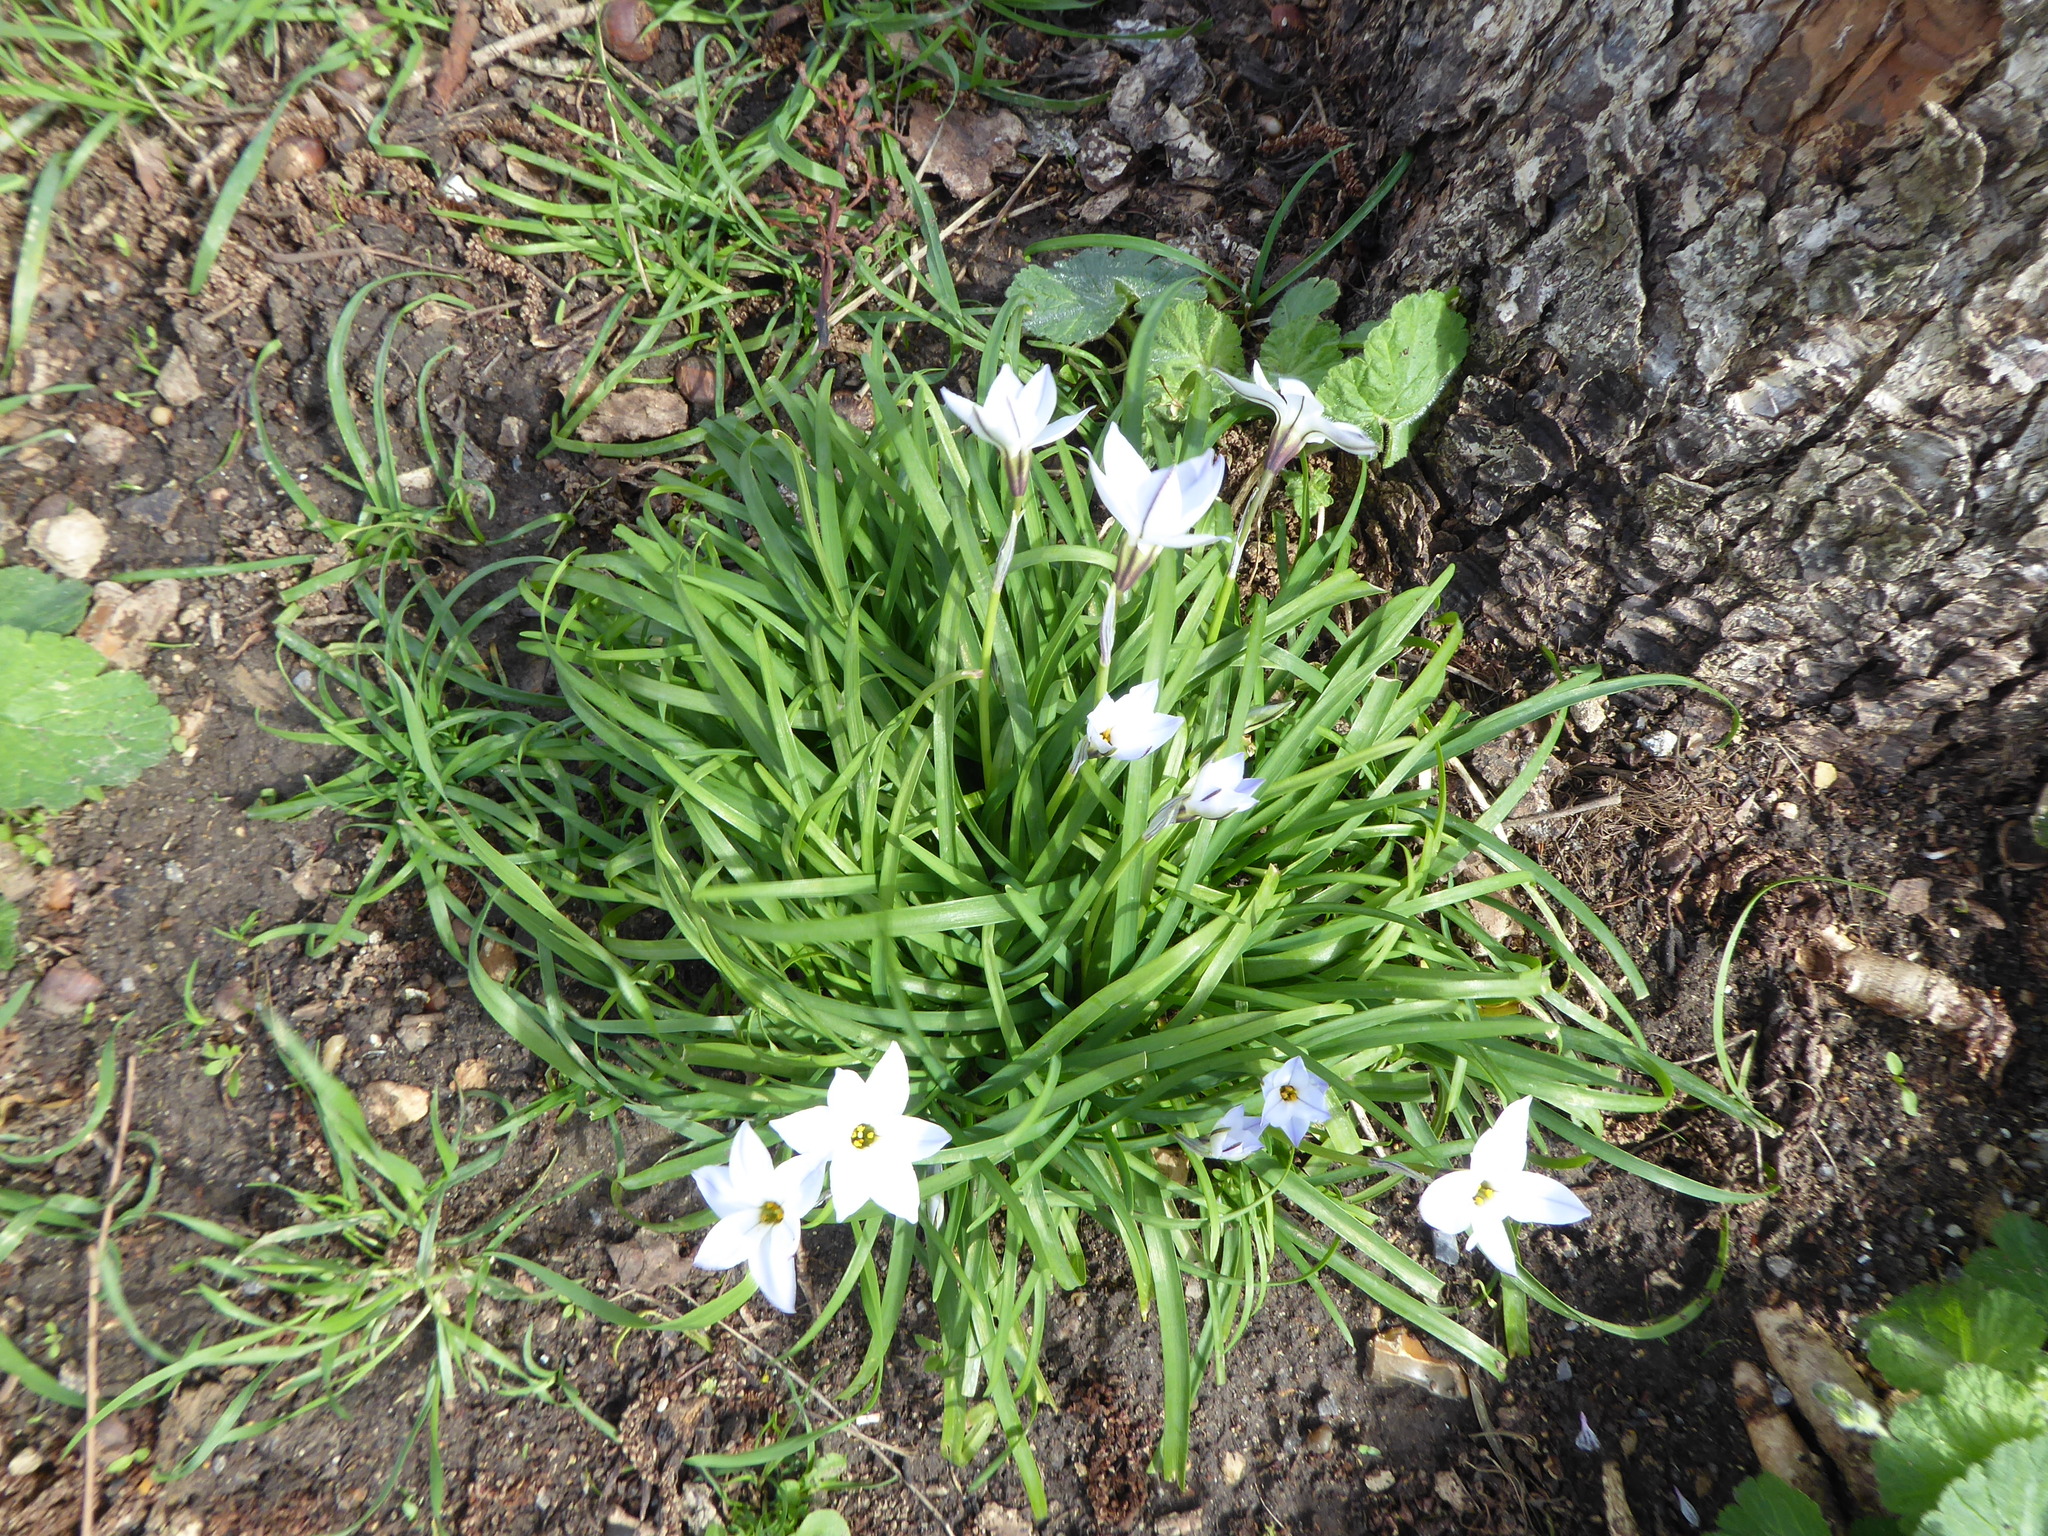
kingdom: Plantae
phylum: Tracheophyta
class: Liliopsida
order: Asparagales
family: Amaryllidaceae
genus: Ipheion
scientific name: Ipheion uniflorum
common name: Spring starflower
